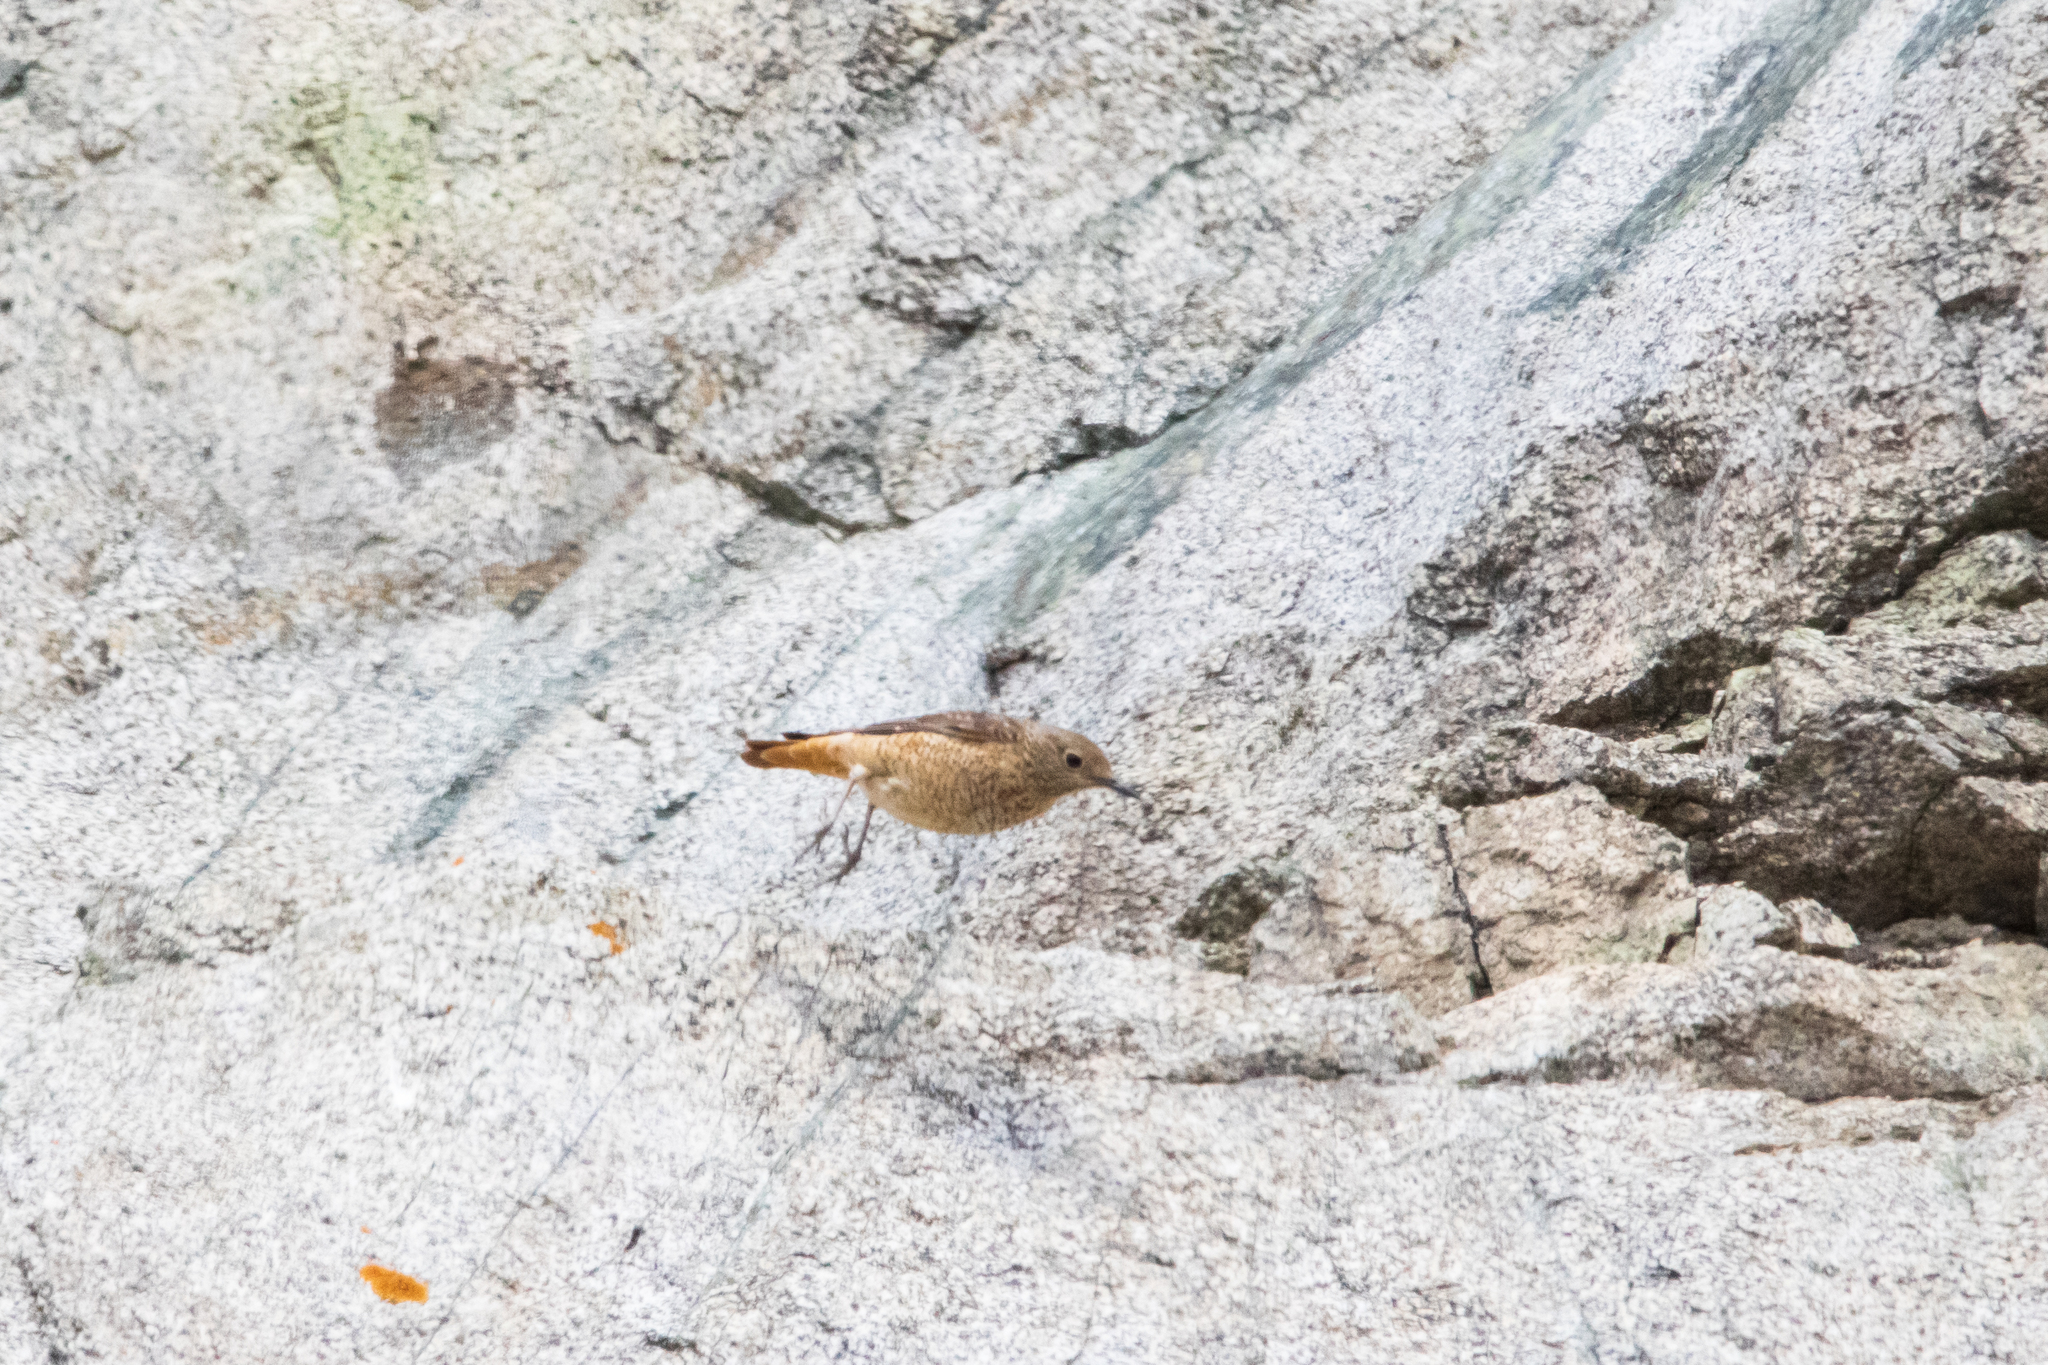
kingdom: Animalia
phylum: Chordata
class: Aves
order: Passeriformes
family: Muscicapidae
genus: Monticola
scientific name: Monticola saxatilis
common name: Rufous-tailed rock thrush
